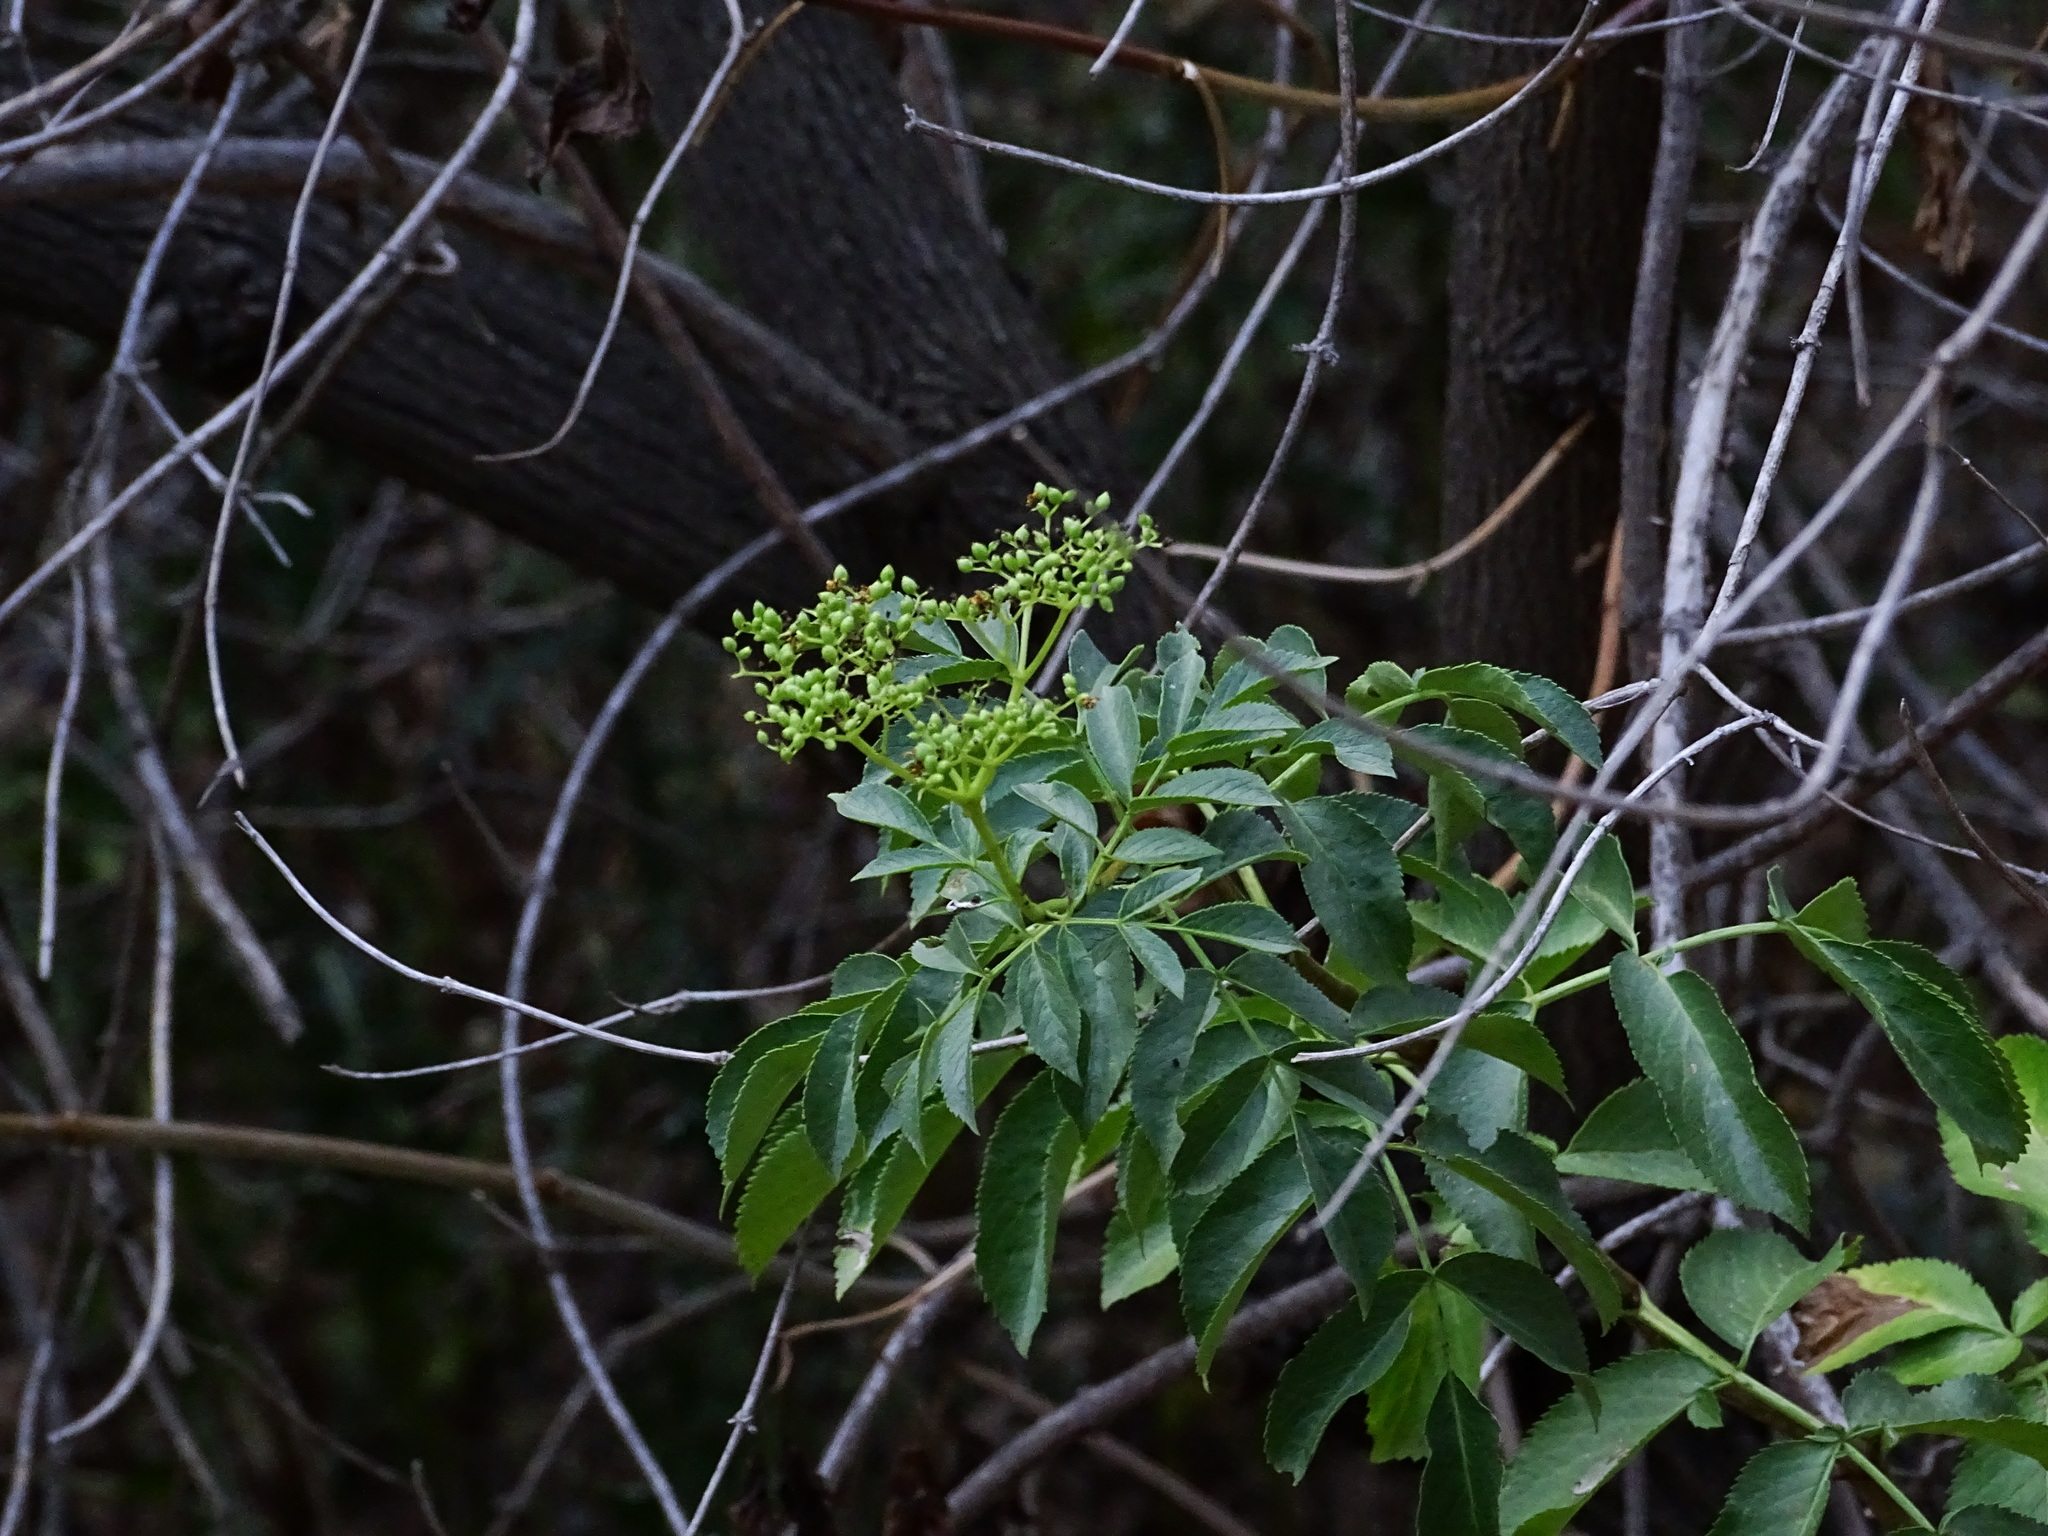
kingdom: Plantae
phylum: Tracheophyta
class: Magnoliopsida
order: Dipsacales
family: Viburnaceae
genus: Sambucus
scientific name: Sambucus cerulea
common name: Blue elder
